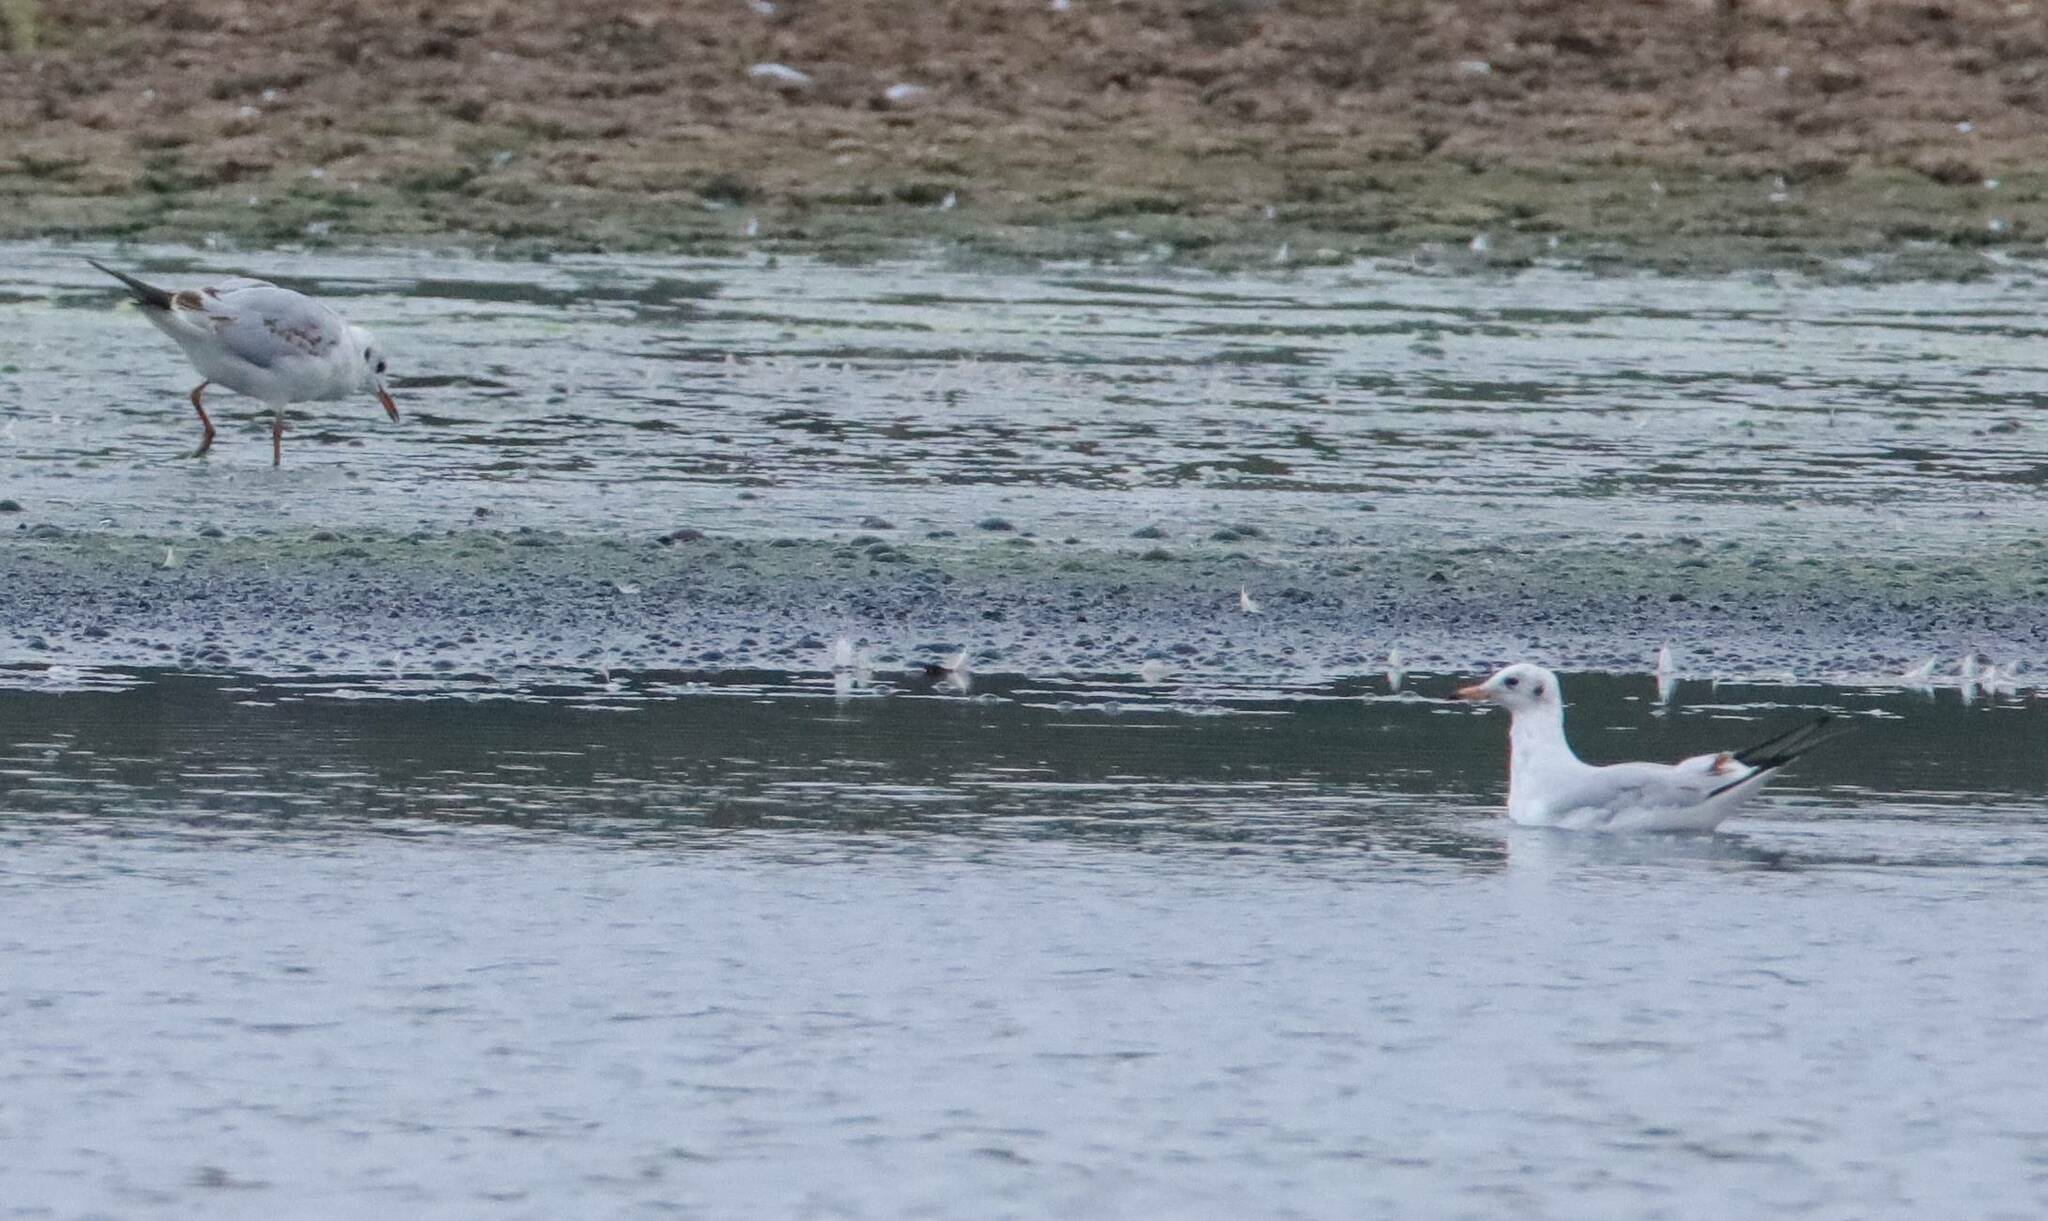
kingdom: Animalia
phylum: Chordata
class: Aves
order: Charadriiformes
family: Laridae
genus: Chroicocephalus
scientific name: Chroicocephalus ridibundus
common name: Black-headed gull
